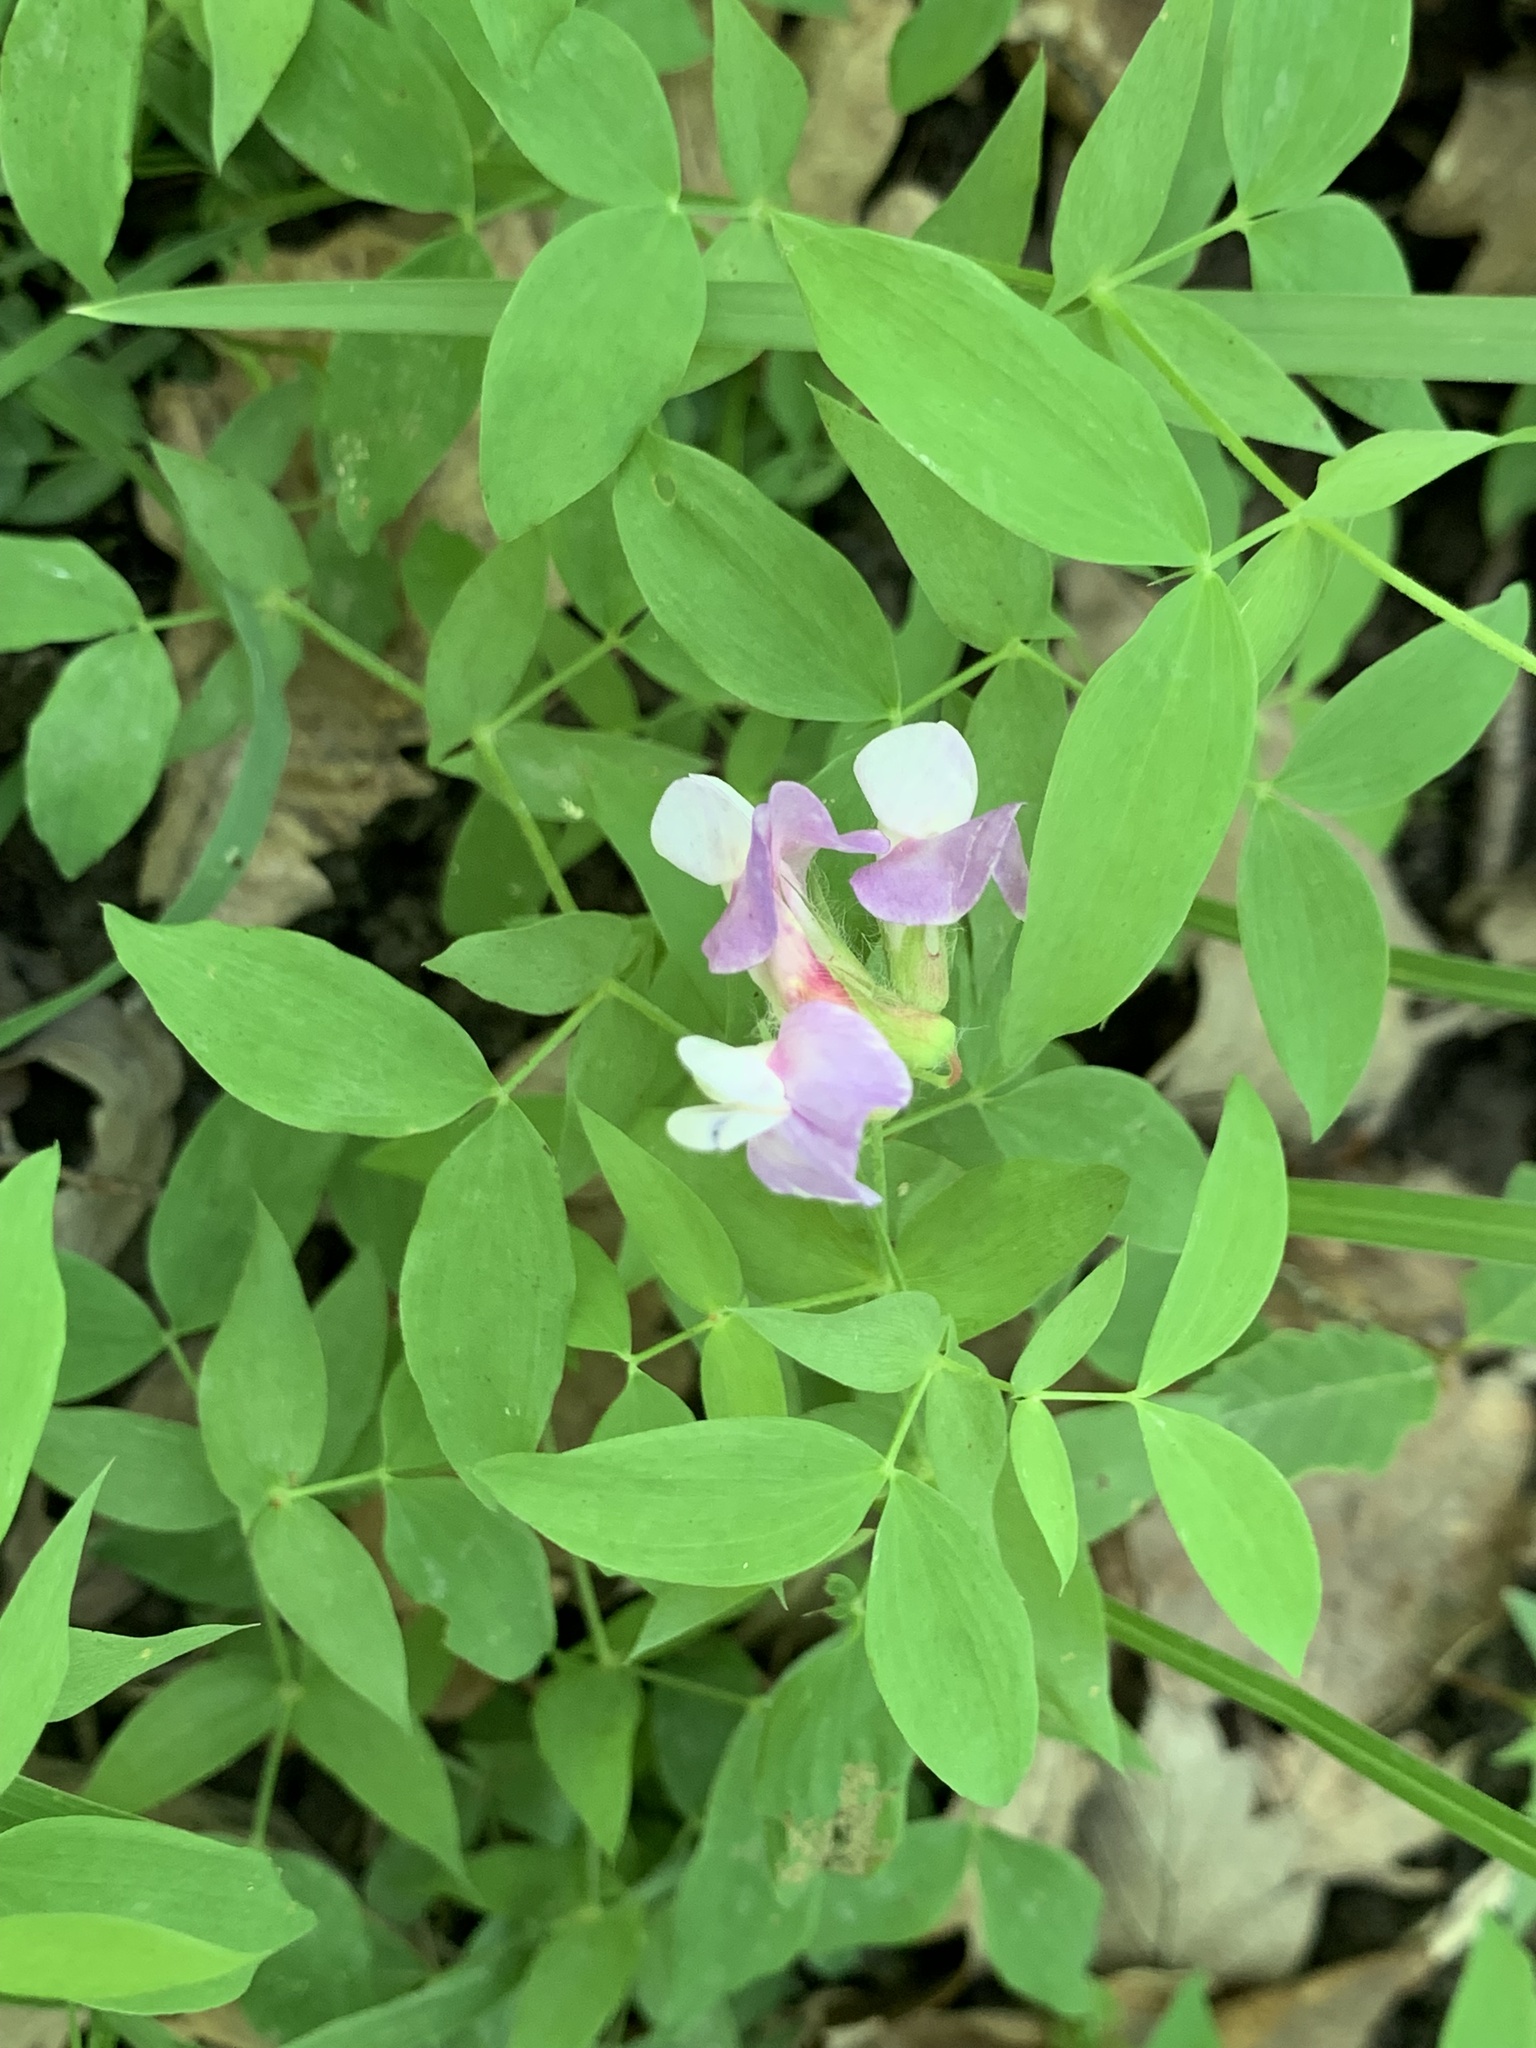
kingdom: Plantae
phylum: Tracheophyta
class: Magnoliopsida
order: Fabales
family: Fabaceae
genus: Lathyrus
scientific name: Lathyrus laxiflorus
